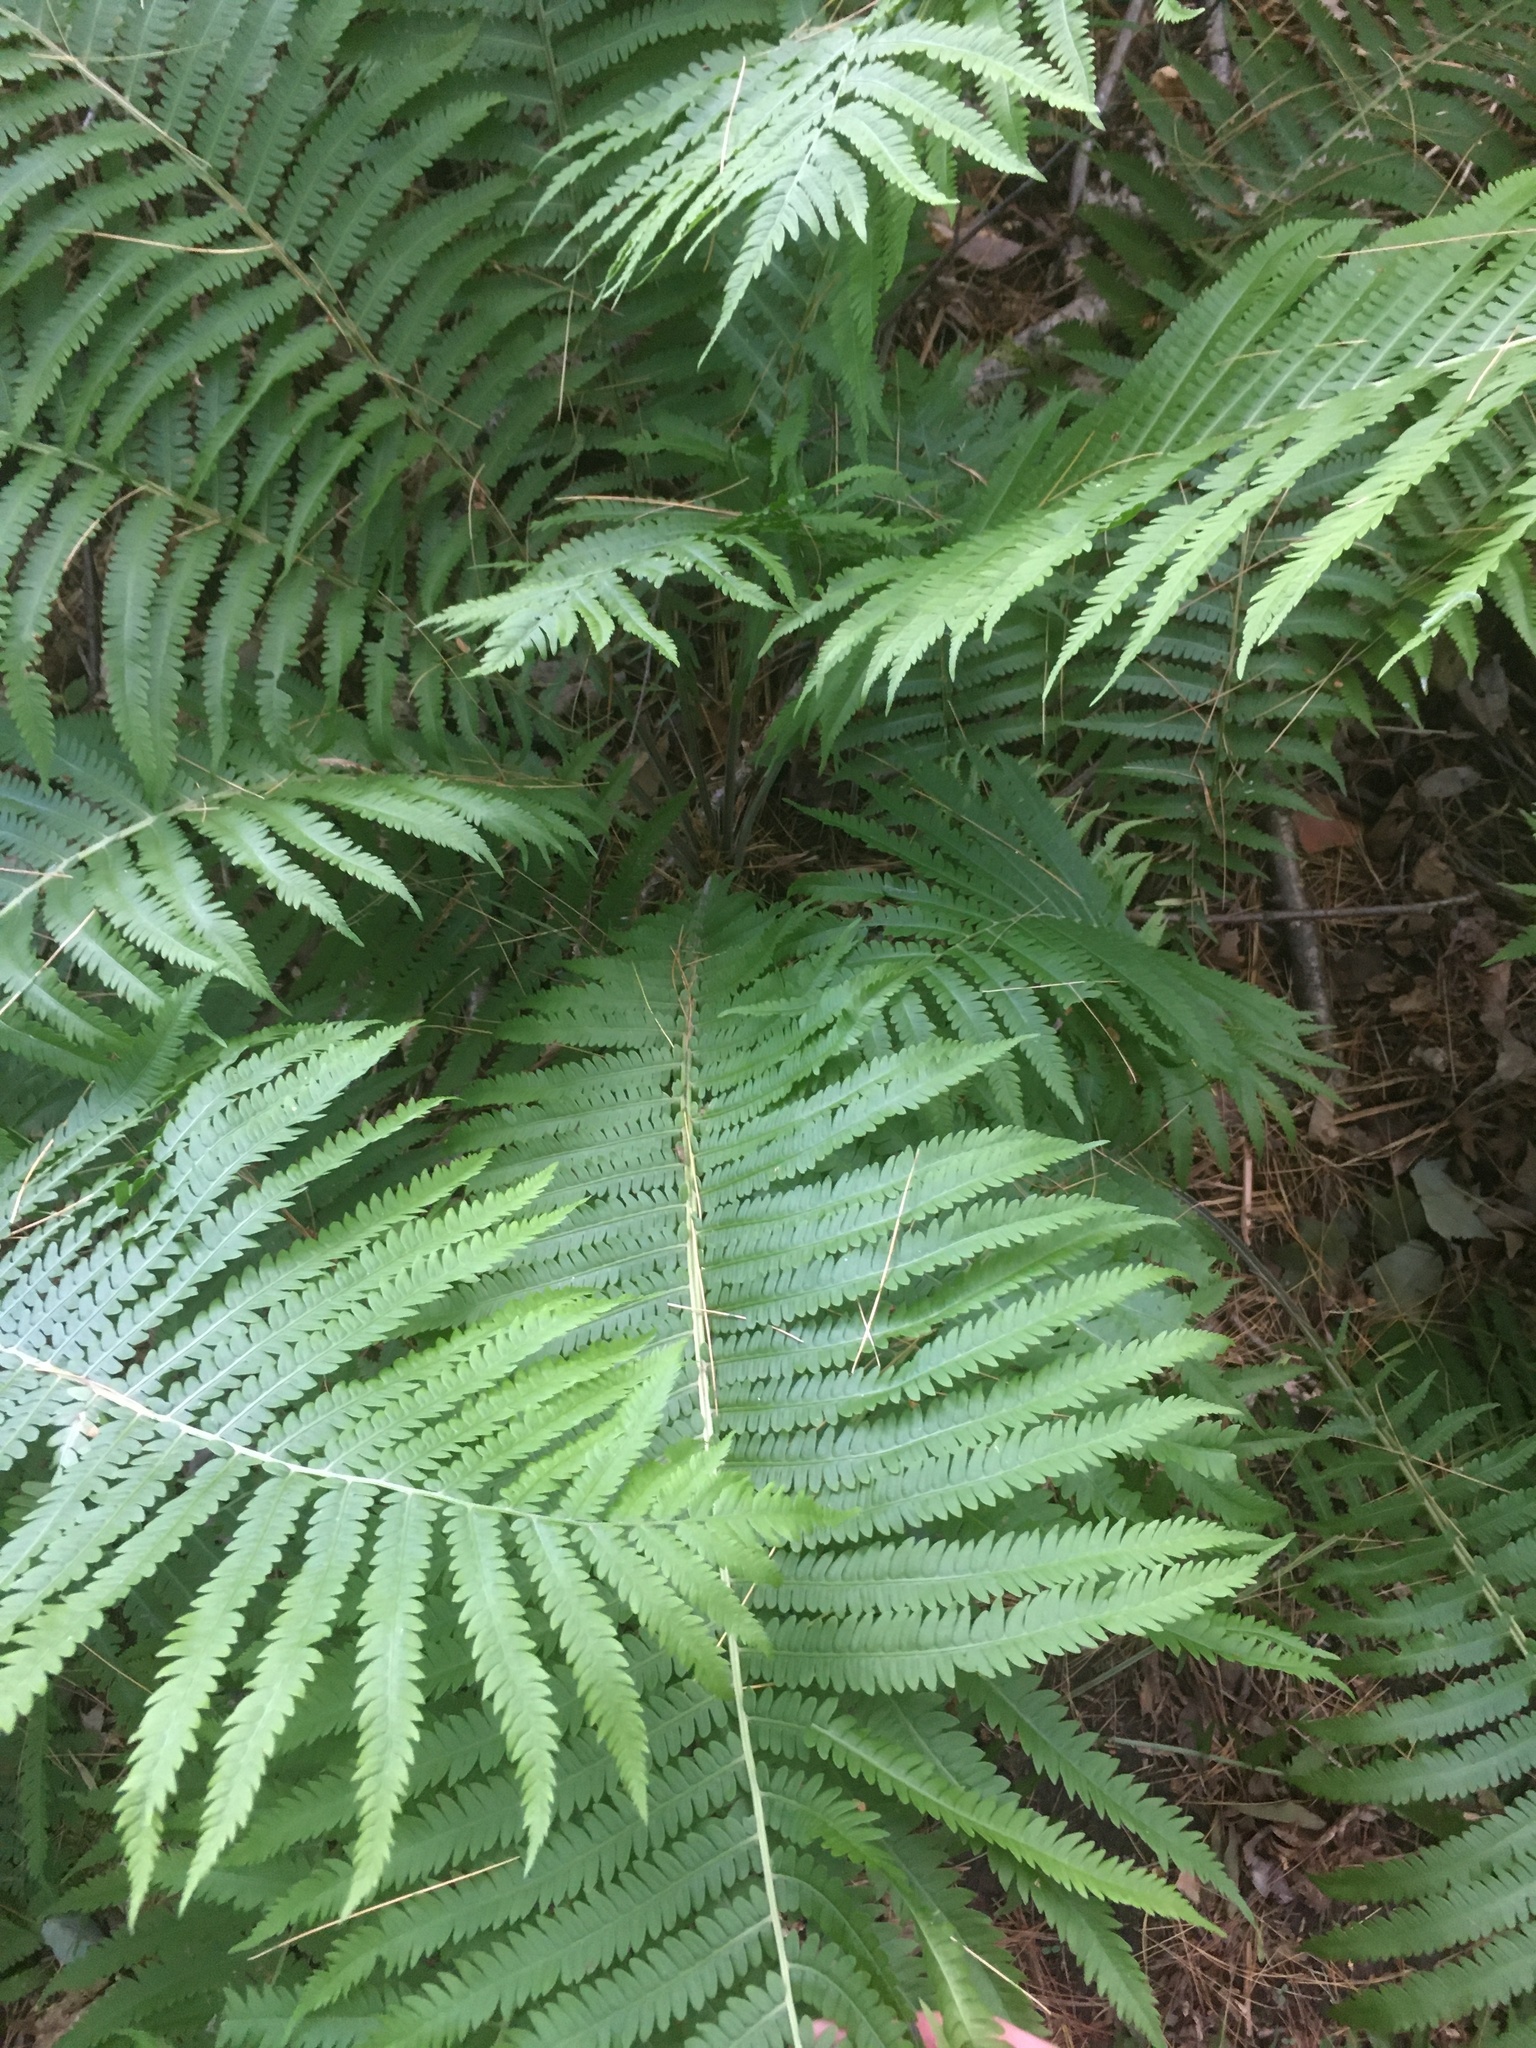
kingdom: Plantae
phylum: Tracheophyta
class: Polypodiopsida
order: Polypodiales
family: Onocleaceae
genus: Matteuccia
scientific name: Matteuccia struthiopteris
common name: Ostrich fern
